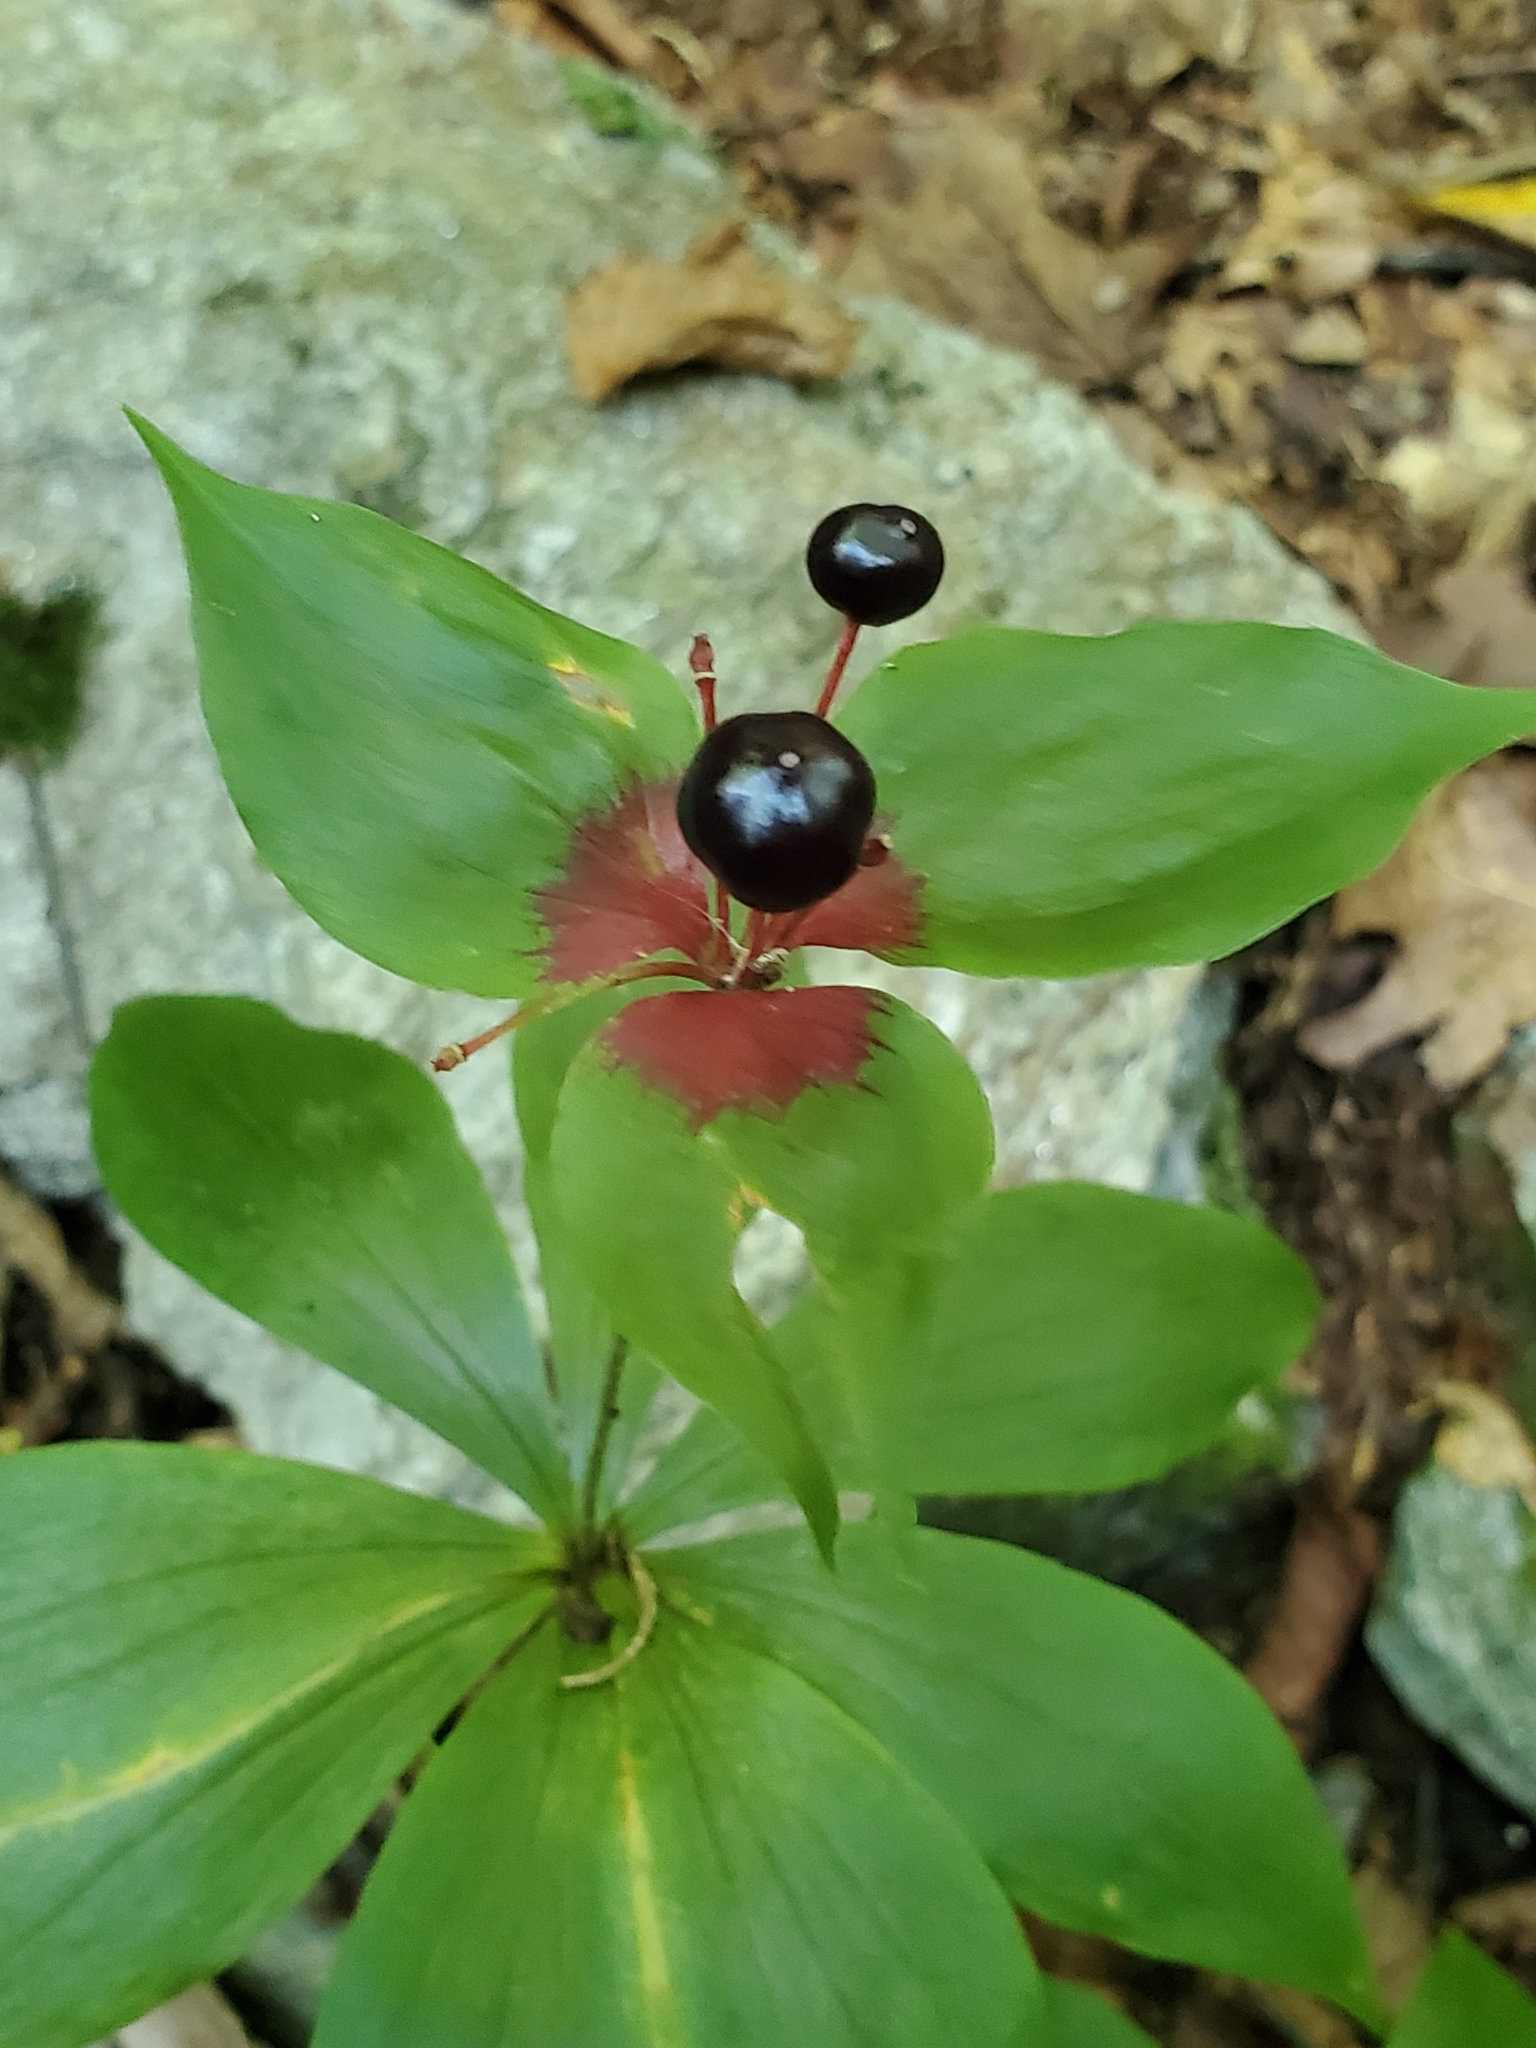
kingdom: Plantae
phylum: Tracheophyta
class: Liliopsida
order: Liliales
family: Liliaceae
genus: Medeola
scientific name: Medeola virginiana
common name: Indian cucumber-root
